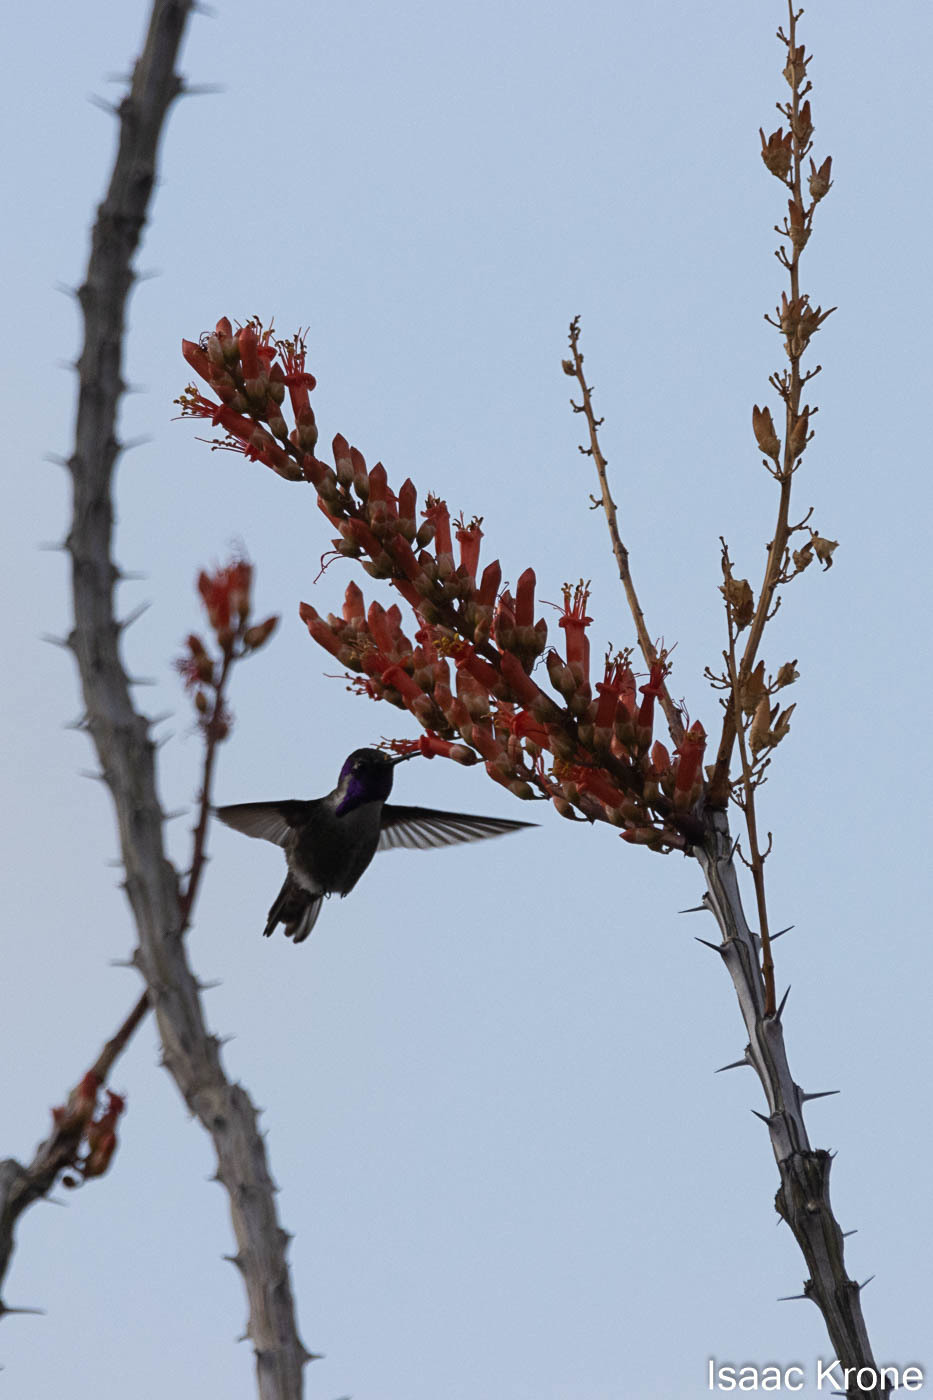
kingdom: Animalia
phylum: Chordata
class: Aves
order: Apodiformes
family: Trochilidae
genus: Calypte
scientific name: Calypte costae
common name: Costa's hummingbird
